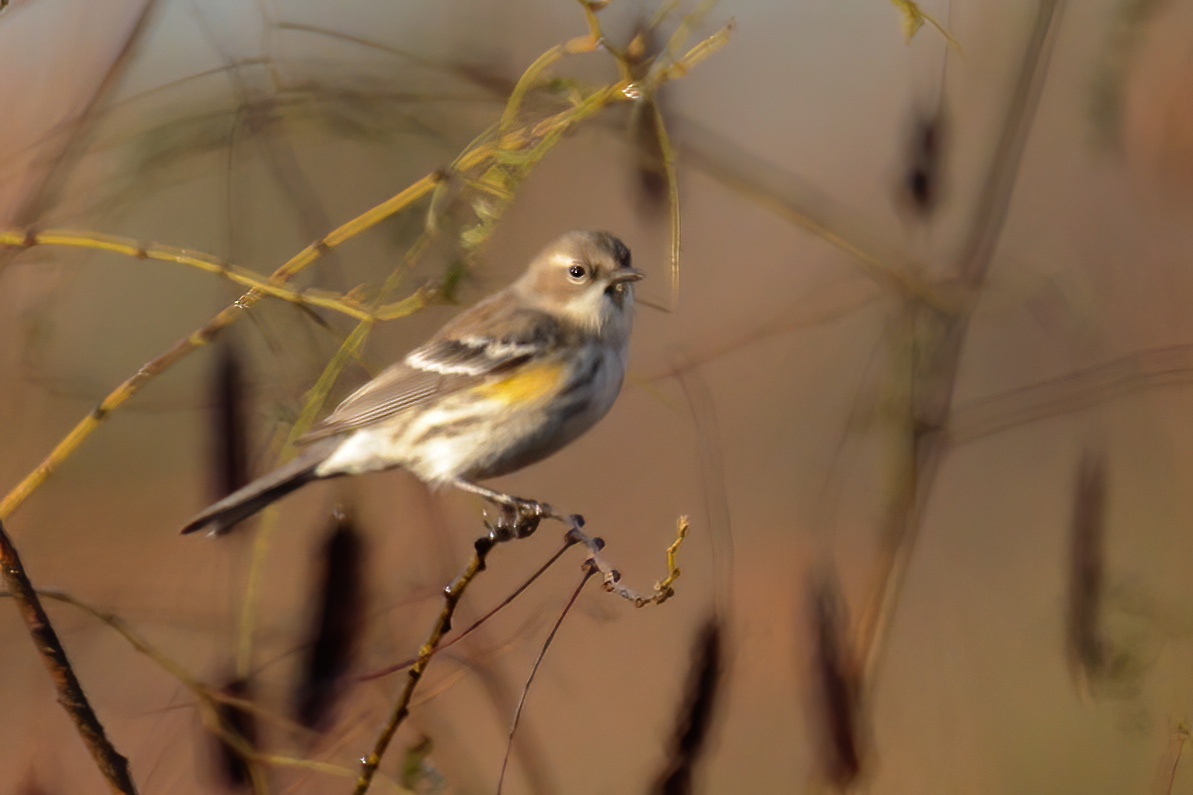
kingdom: Animalia
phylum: Chordata
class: Aves
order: Passeriformes
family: Parulidae
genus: Setophaga
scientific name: Setophaga coronata
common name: Myrtle warbler
